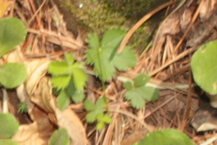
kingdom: Plantae
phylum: Tracheophyta
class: Magnoliopsida
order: Rosales
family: Rosaceae
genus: Potentilla
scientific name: Potentilla canadensis
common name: Canada cinquefoil
